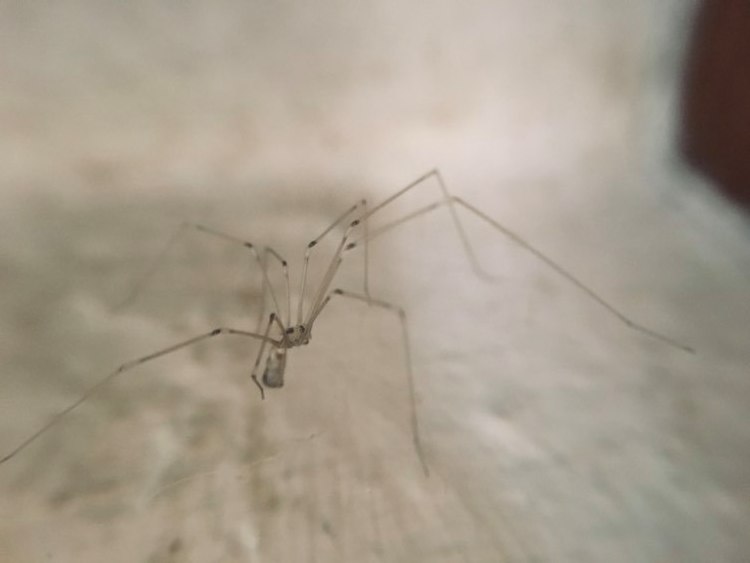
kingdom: Animalia
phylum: Arthropoda
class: Arachnida
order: Araneae
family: Pholcidae
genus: Pholcus
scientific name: Pholcus phalangioides
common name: Longbodied cellar spider
